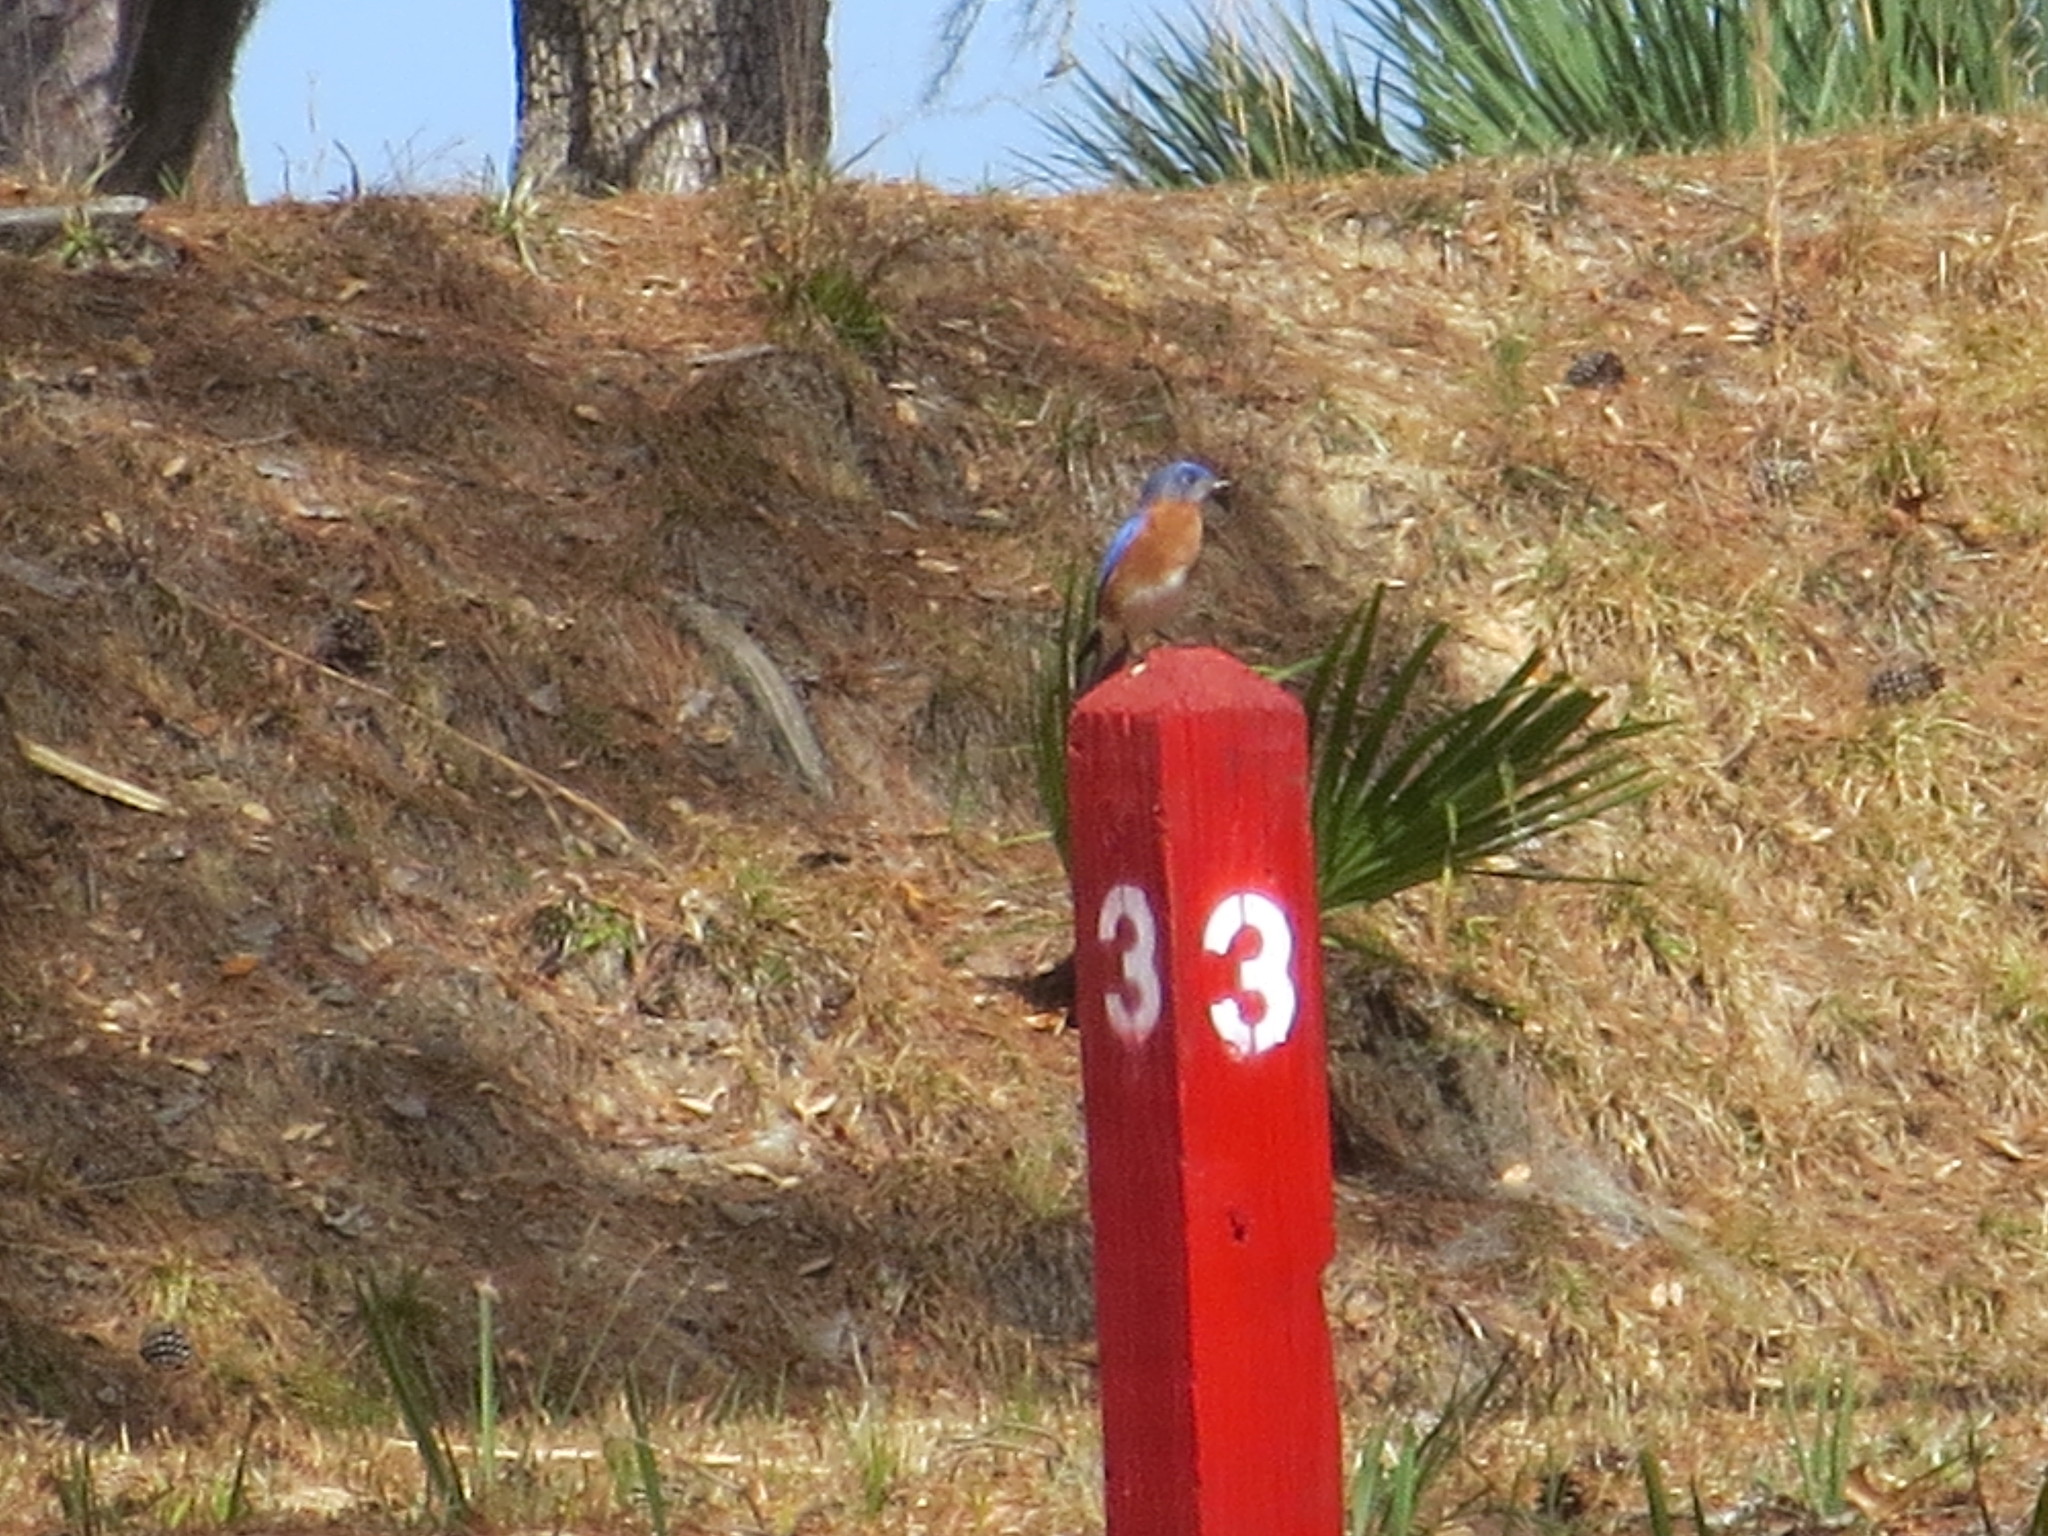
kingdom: Animalia
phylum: Chordata
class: Aves
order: Passeriformes
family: Turdidae
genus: Sialia
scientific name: Sialia sialis
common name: Eastern bluebird
